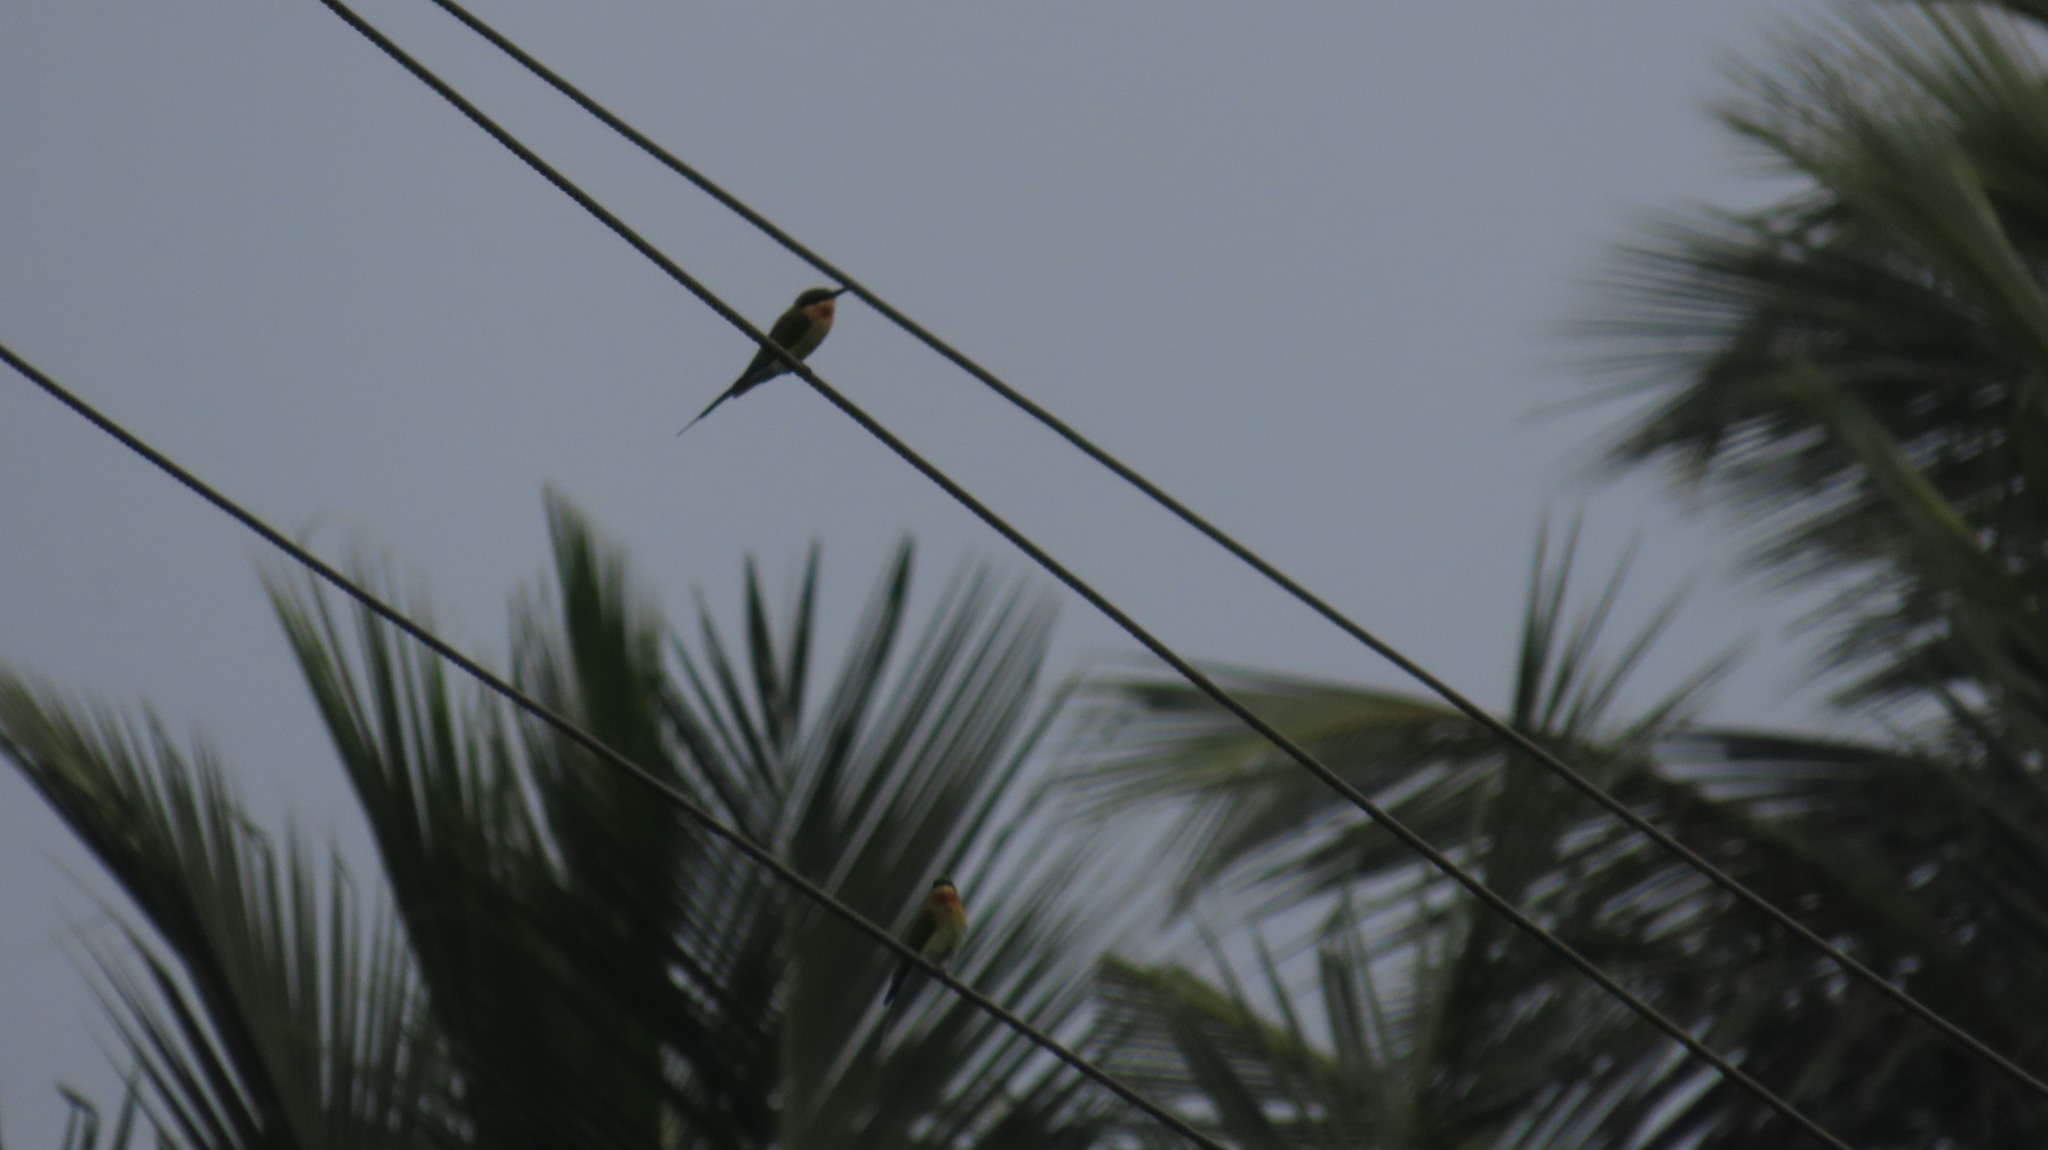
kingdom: Animalia
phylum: Chordata
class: Aves
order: Coraciiformes
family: Meropidae
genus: Merops
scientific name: Merops philippinus
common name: Blue-tailed bee-eater
